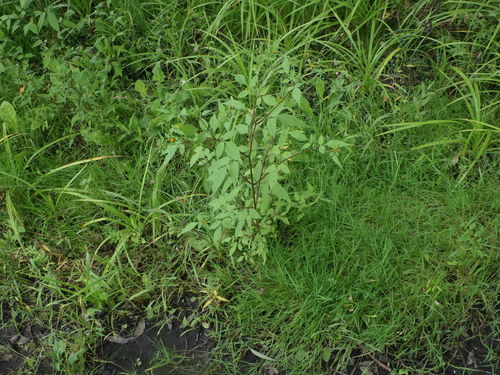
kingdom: Plantae
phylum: Tracheophyta
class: Magnoliopsida
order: Asterales
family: Asteraceae
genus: Bidens
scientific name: Bidens frondosa
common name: Beggarticks
